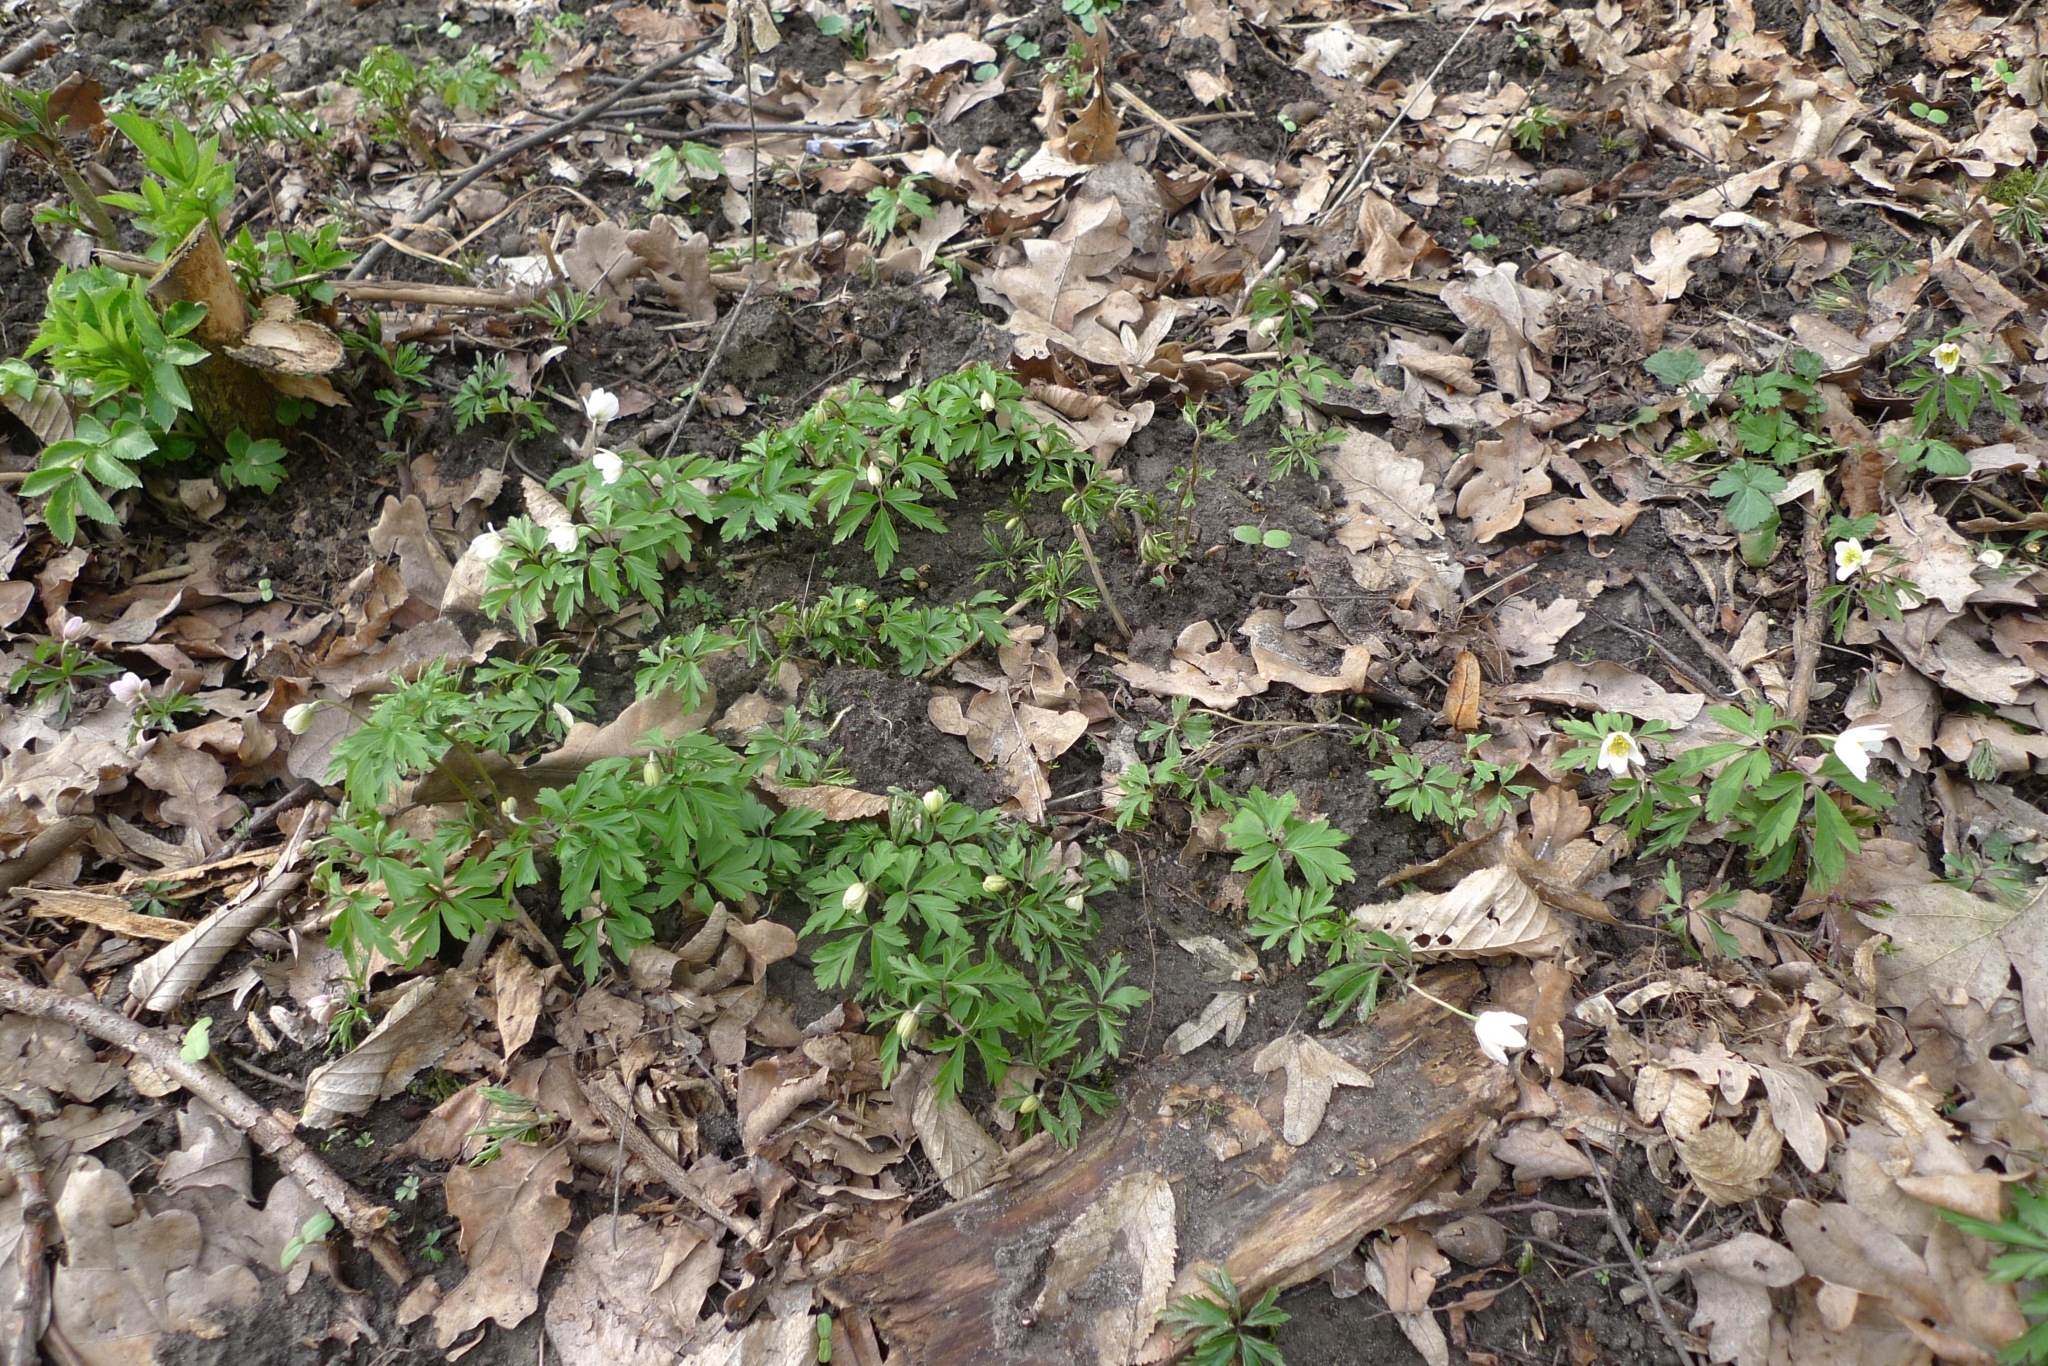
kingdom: Plantae
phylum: Tracheophyta
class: Magnoliopsida
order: Ranunculales
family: Ranunculaceae
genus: Anemone
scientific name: Anemone nemorosa
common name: Wood anemone
